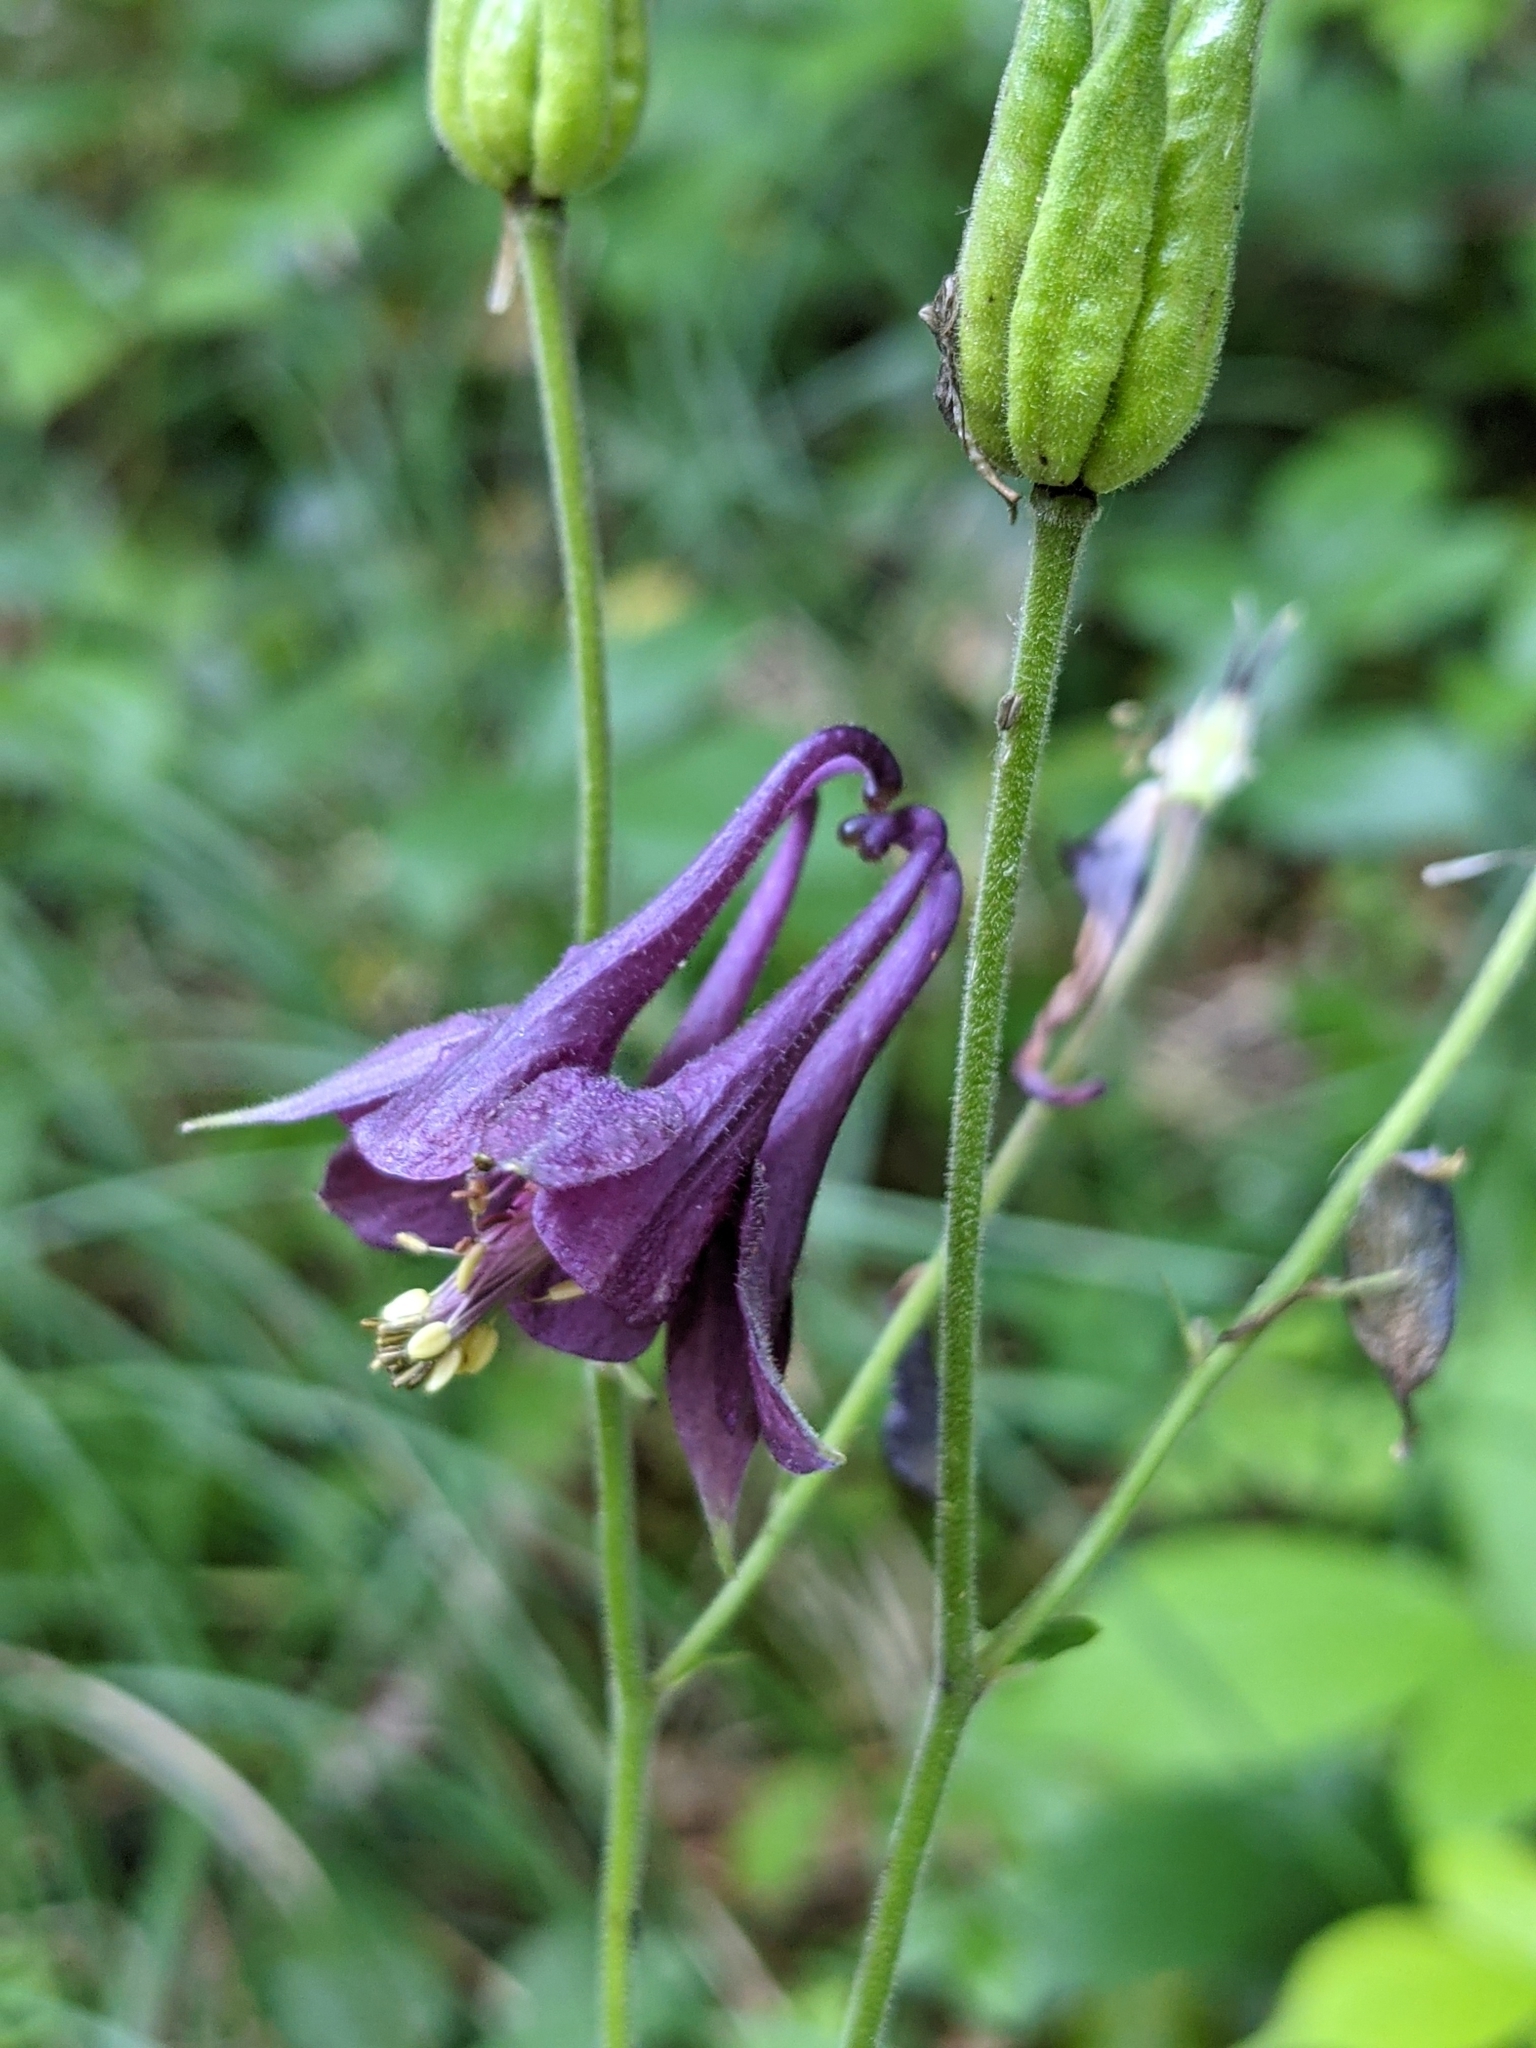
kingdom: Plantae
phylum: Tracheophyta
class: Magnoliopsida
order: Ranunculales
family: Ranunculaceae
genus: Aquilegia
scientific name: Aquilegia atrata
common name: Dark columbine
